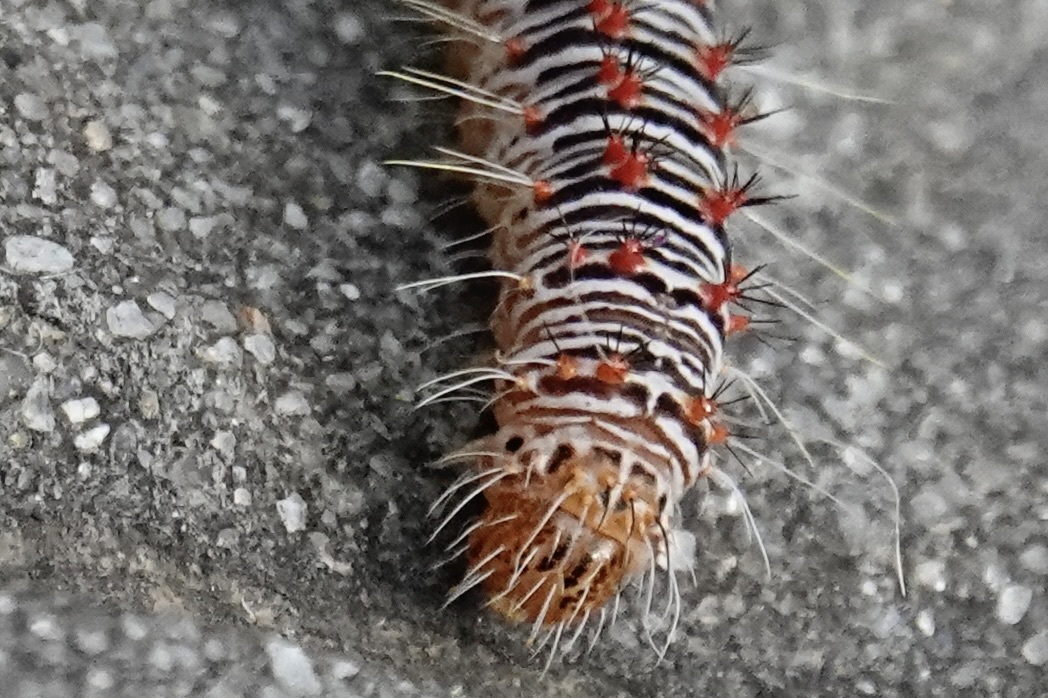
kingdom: Animalia
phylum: Arthropoda
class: Insecta
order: Lepidoptera
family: Noctuidae
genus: Acronicta
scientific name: Acronicta retardata
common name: Maple dagger
